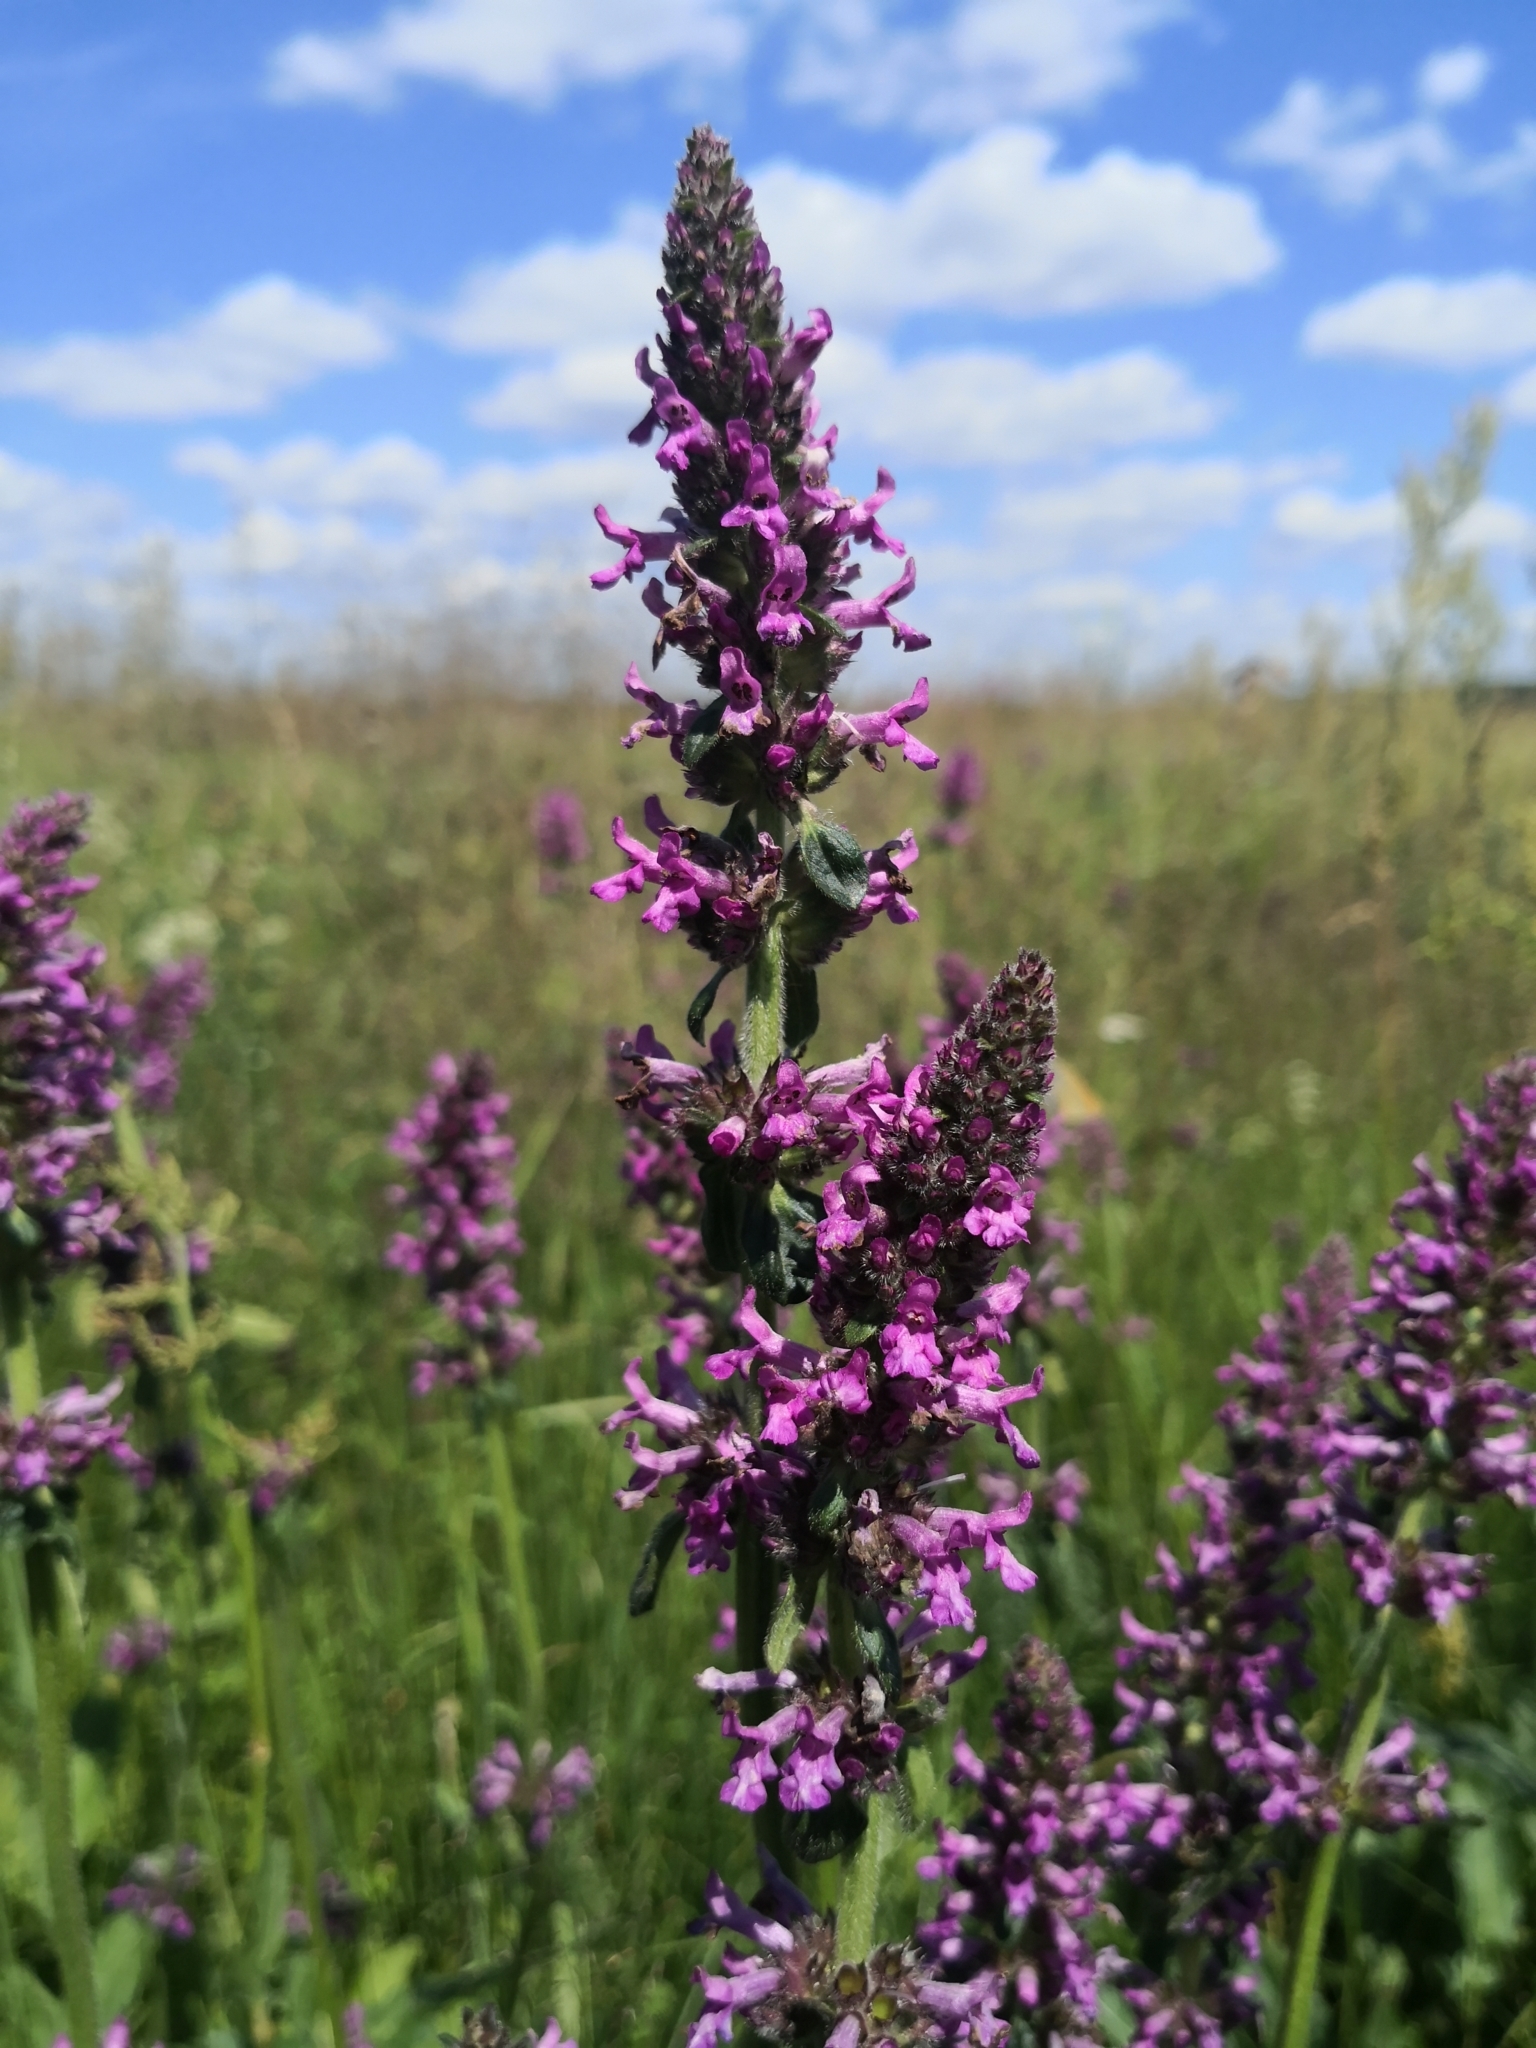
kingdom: Plantae
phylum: Tracheophyta
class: Magnoliopsida
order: Lamiales
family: Lamiaceae
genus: Betonica
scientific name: Betonica officinalis
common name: Bishop's-wort
